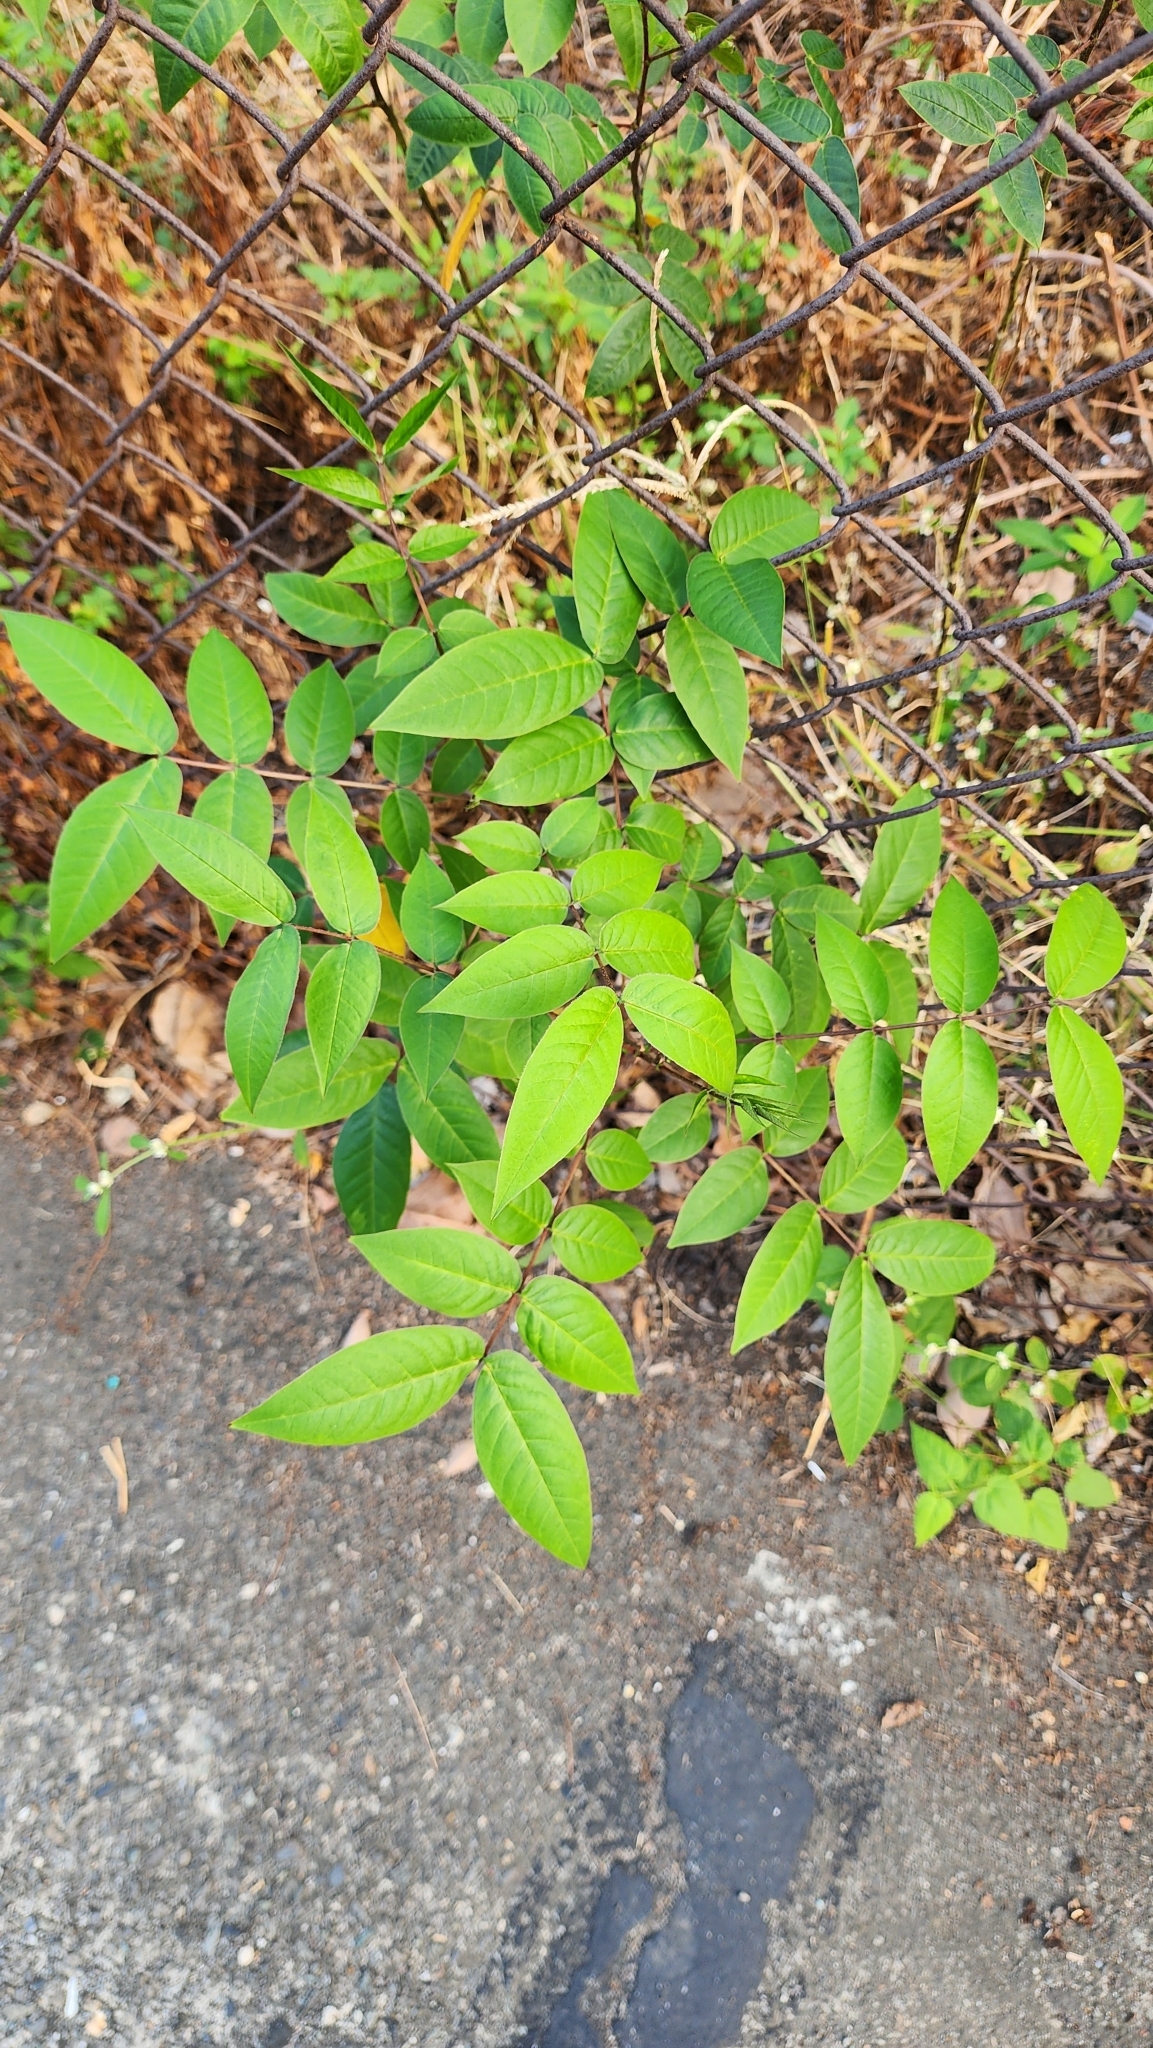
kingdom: Plantae
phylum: Tracheophyta
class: Magnoliopsida
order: Fabales
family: Fabaceae
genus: Senna
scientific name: Senna occidentalis
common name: Septicweed
